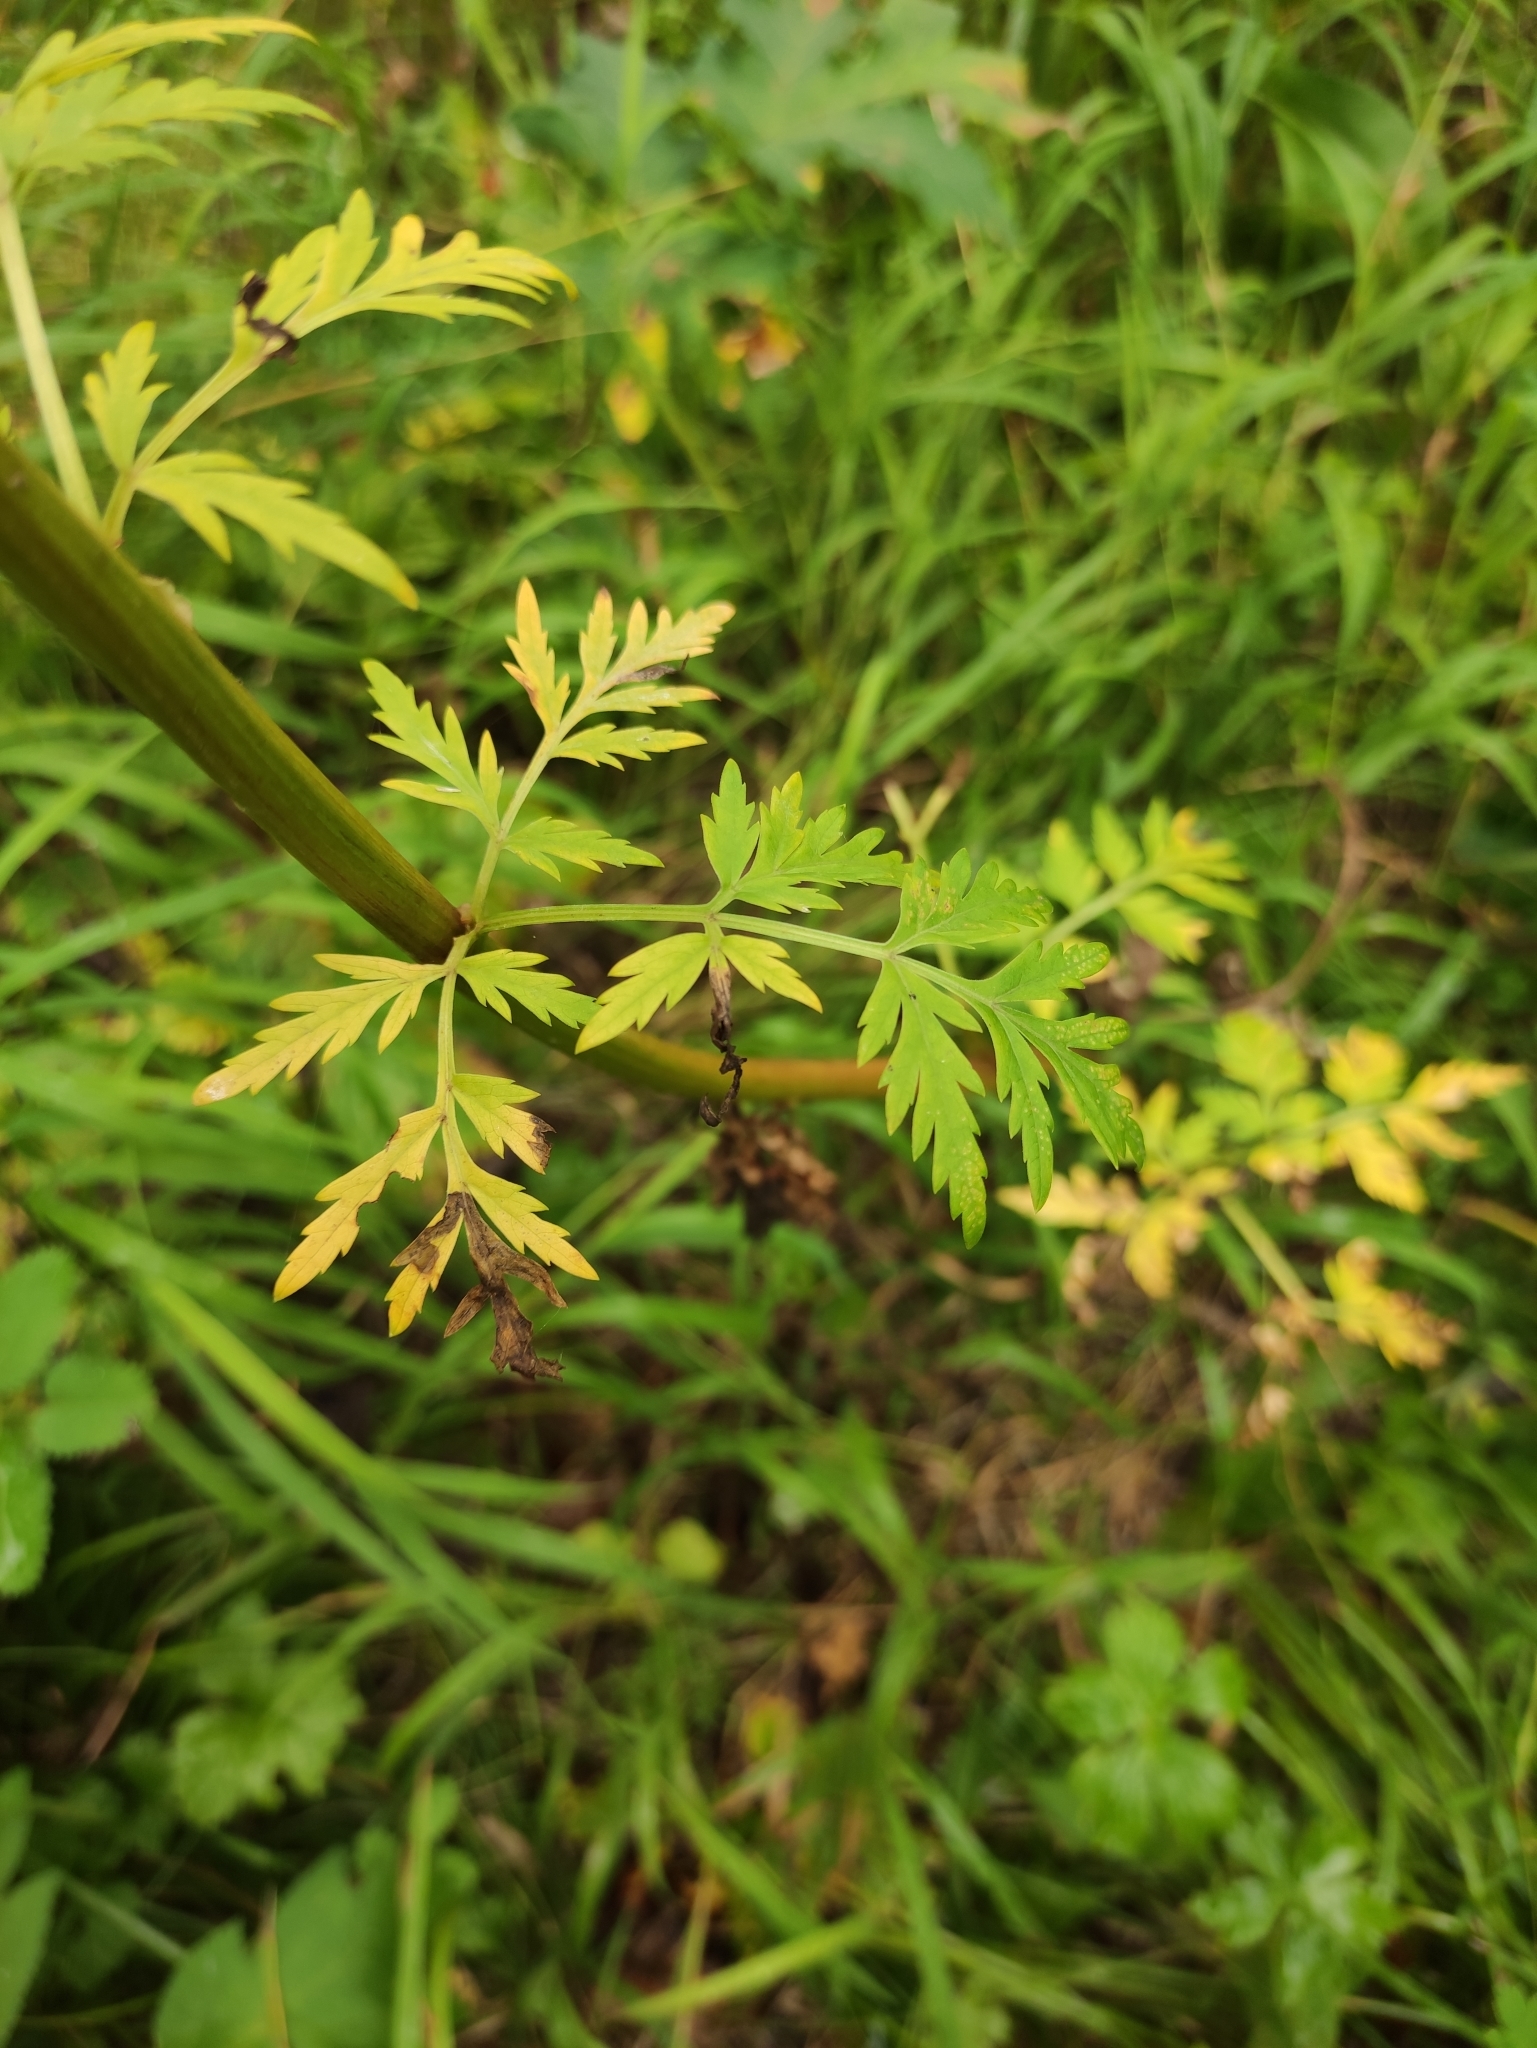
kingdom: Plantae
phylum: Tracheophyta
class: Magnoliopsida
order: Apiales
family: Apiaceae
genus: Pleurospermum
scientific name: Pleurospermum uralense
